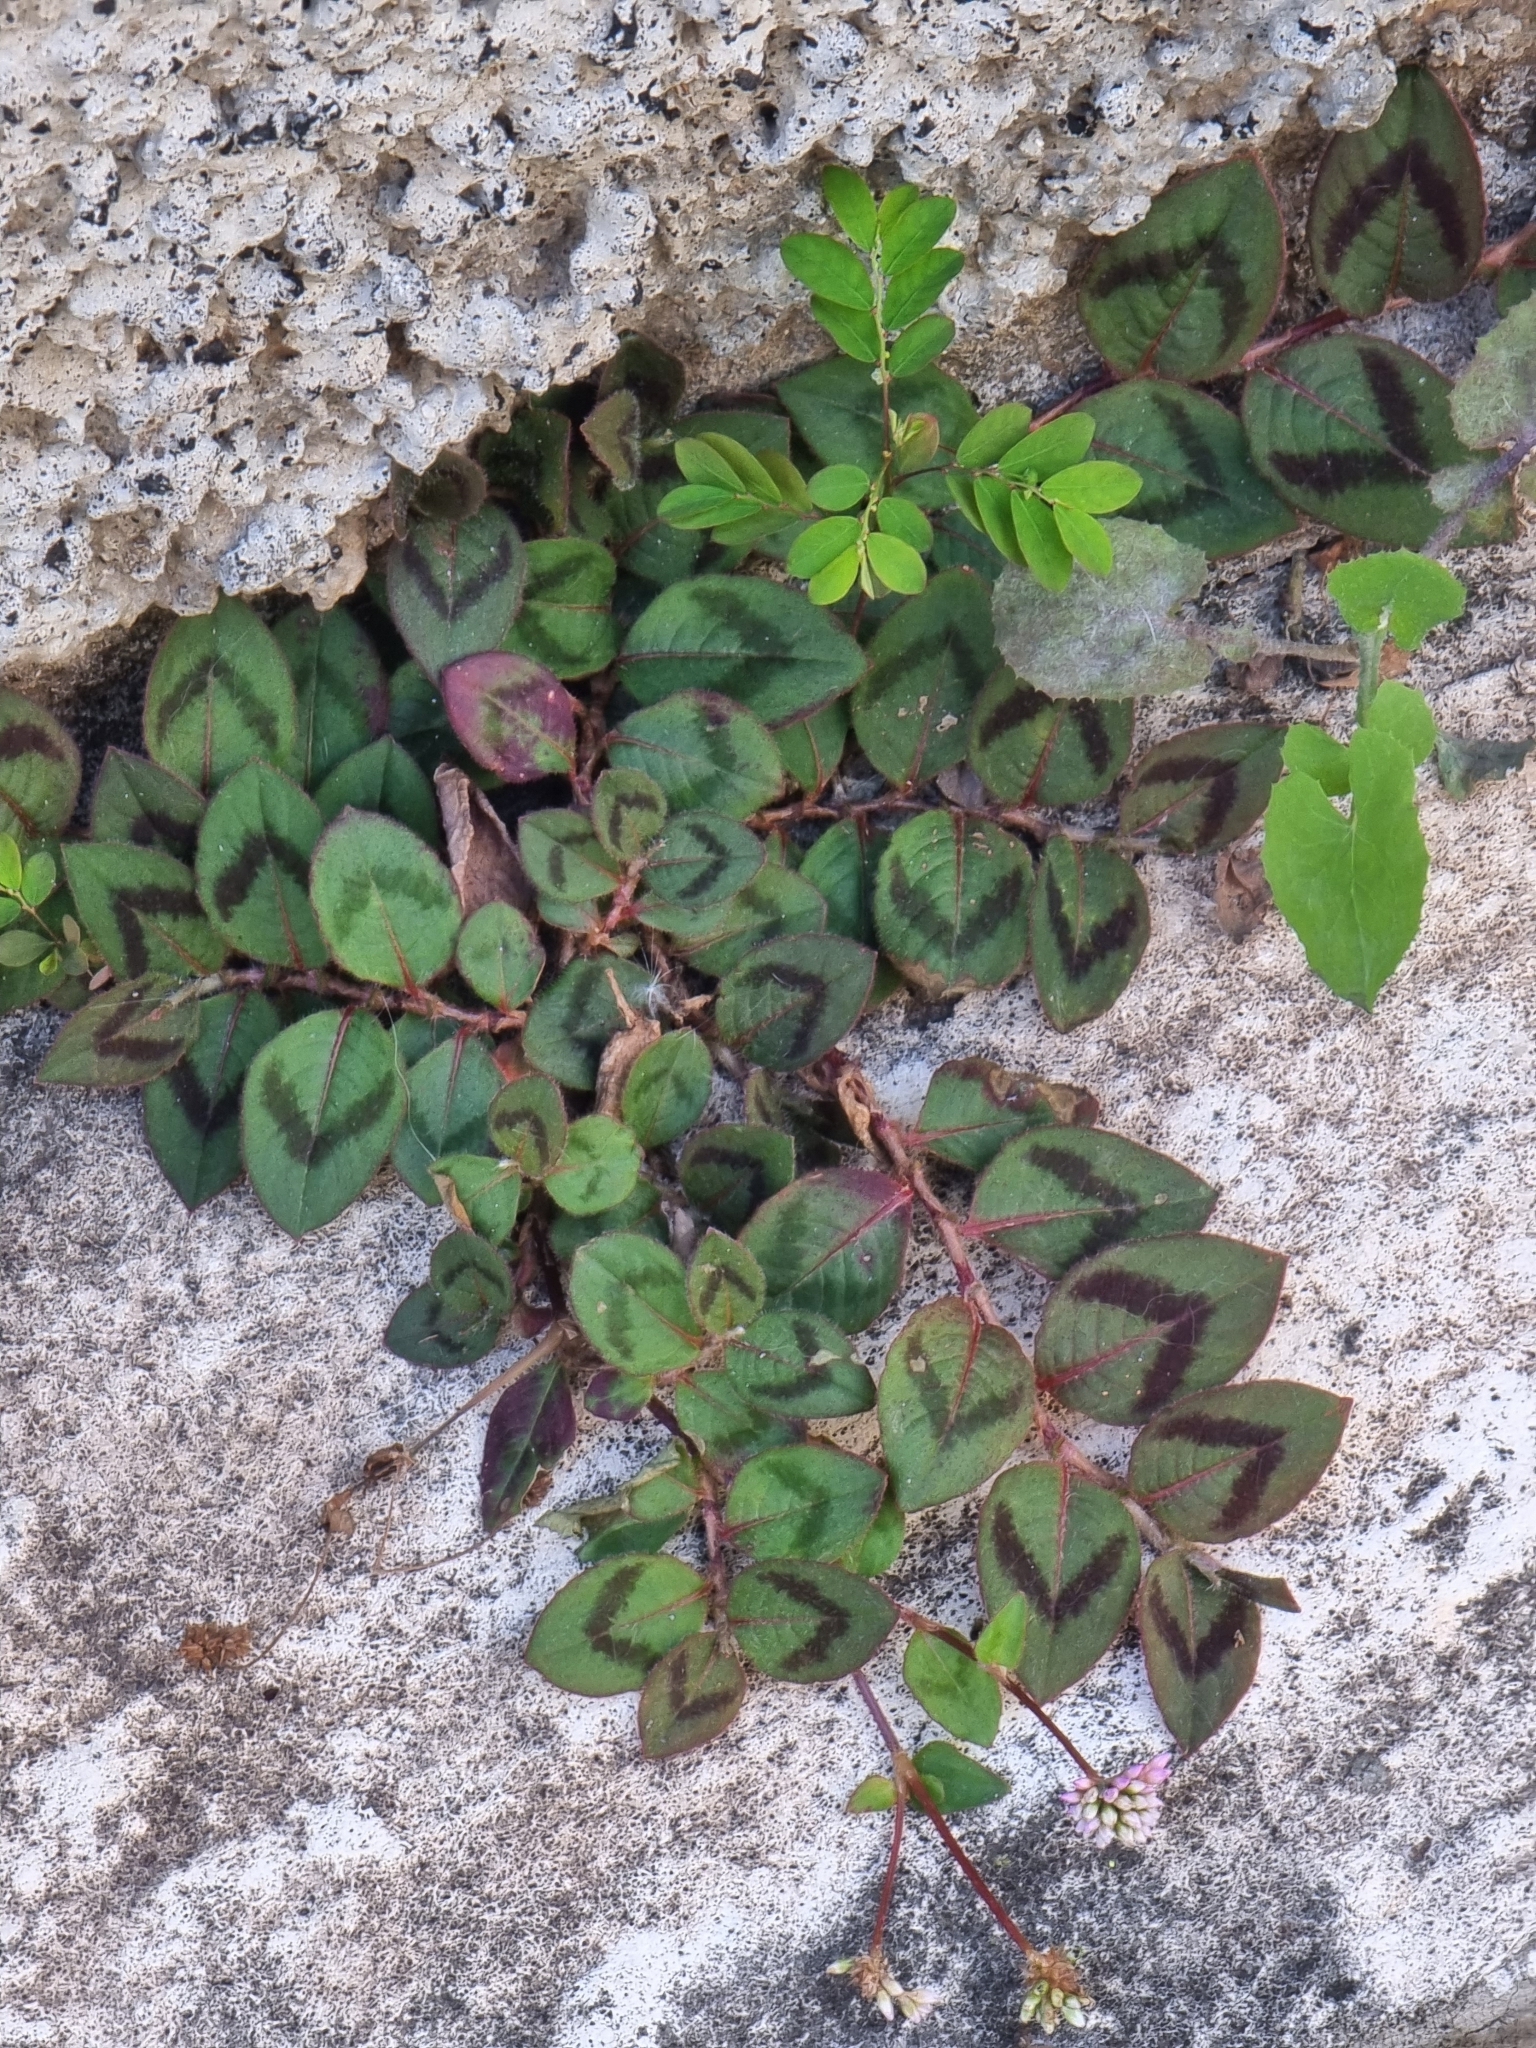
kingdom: Plantae
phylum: Tracheophyta
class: Magnoliopsida
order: Caryophyllales
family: Polygonaceae
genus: Persicaria
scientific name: Persicaria capitata
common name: Pinkhead smartweed
